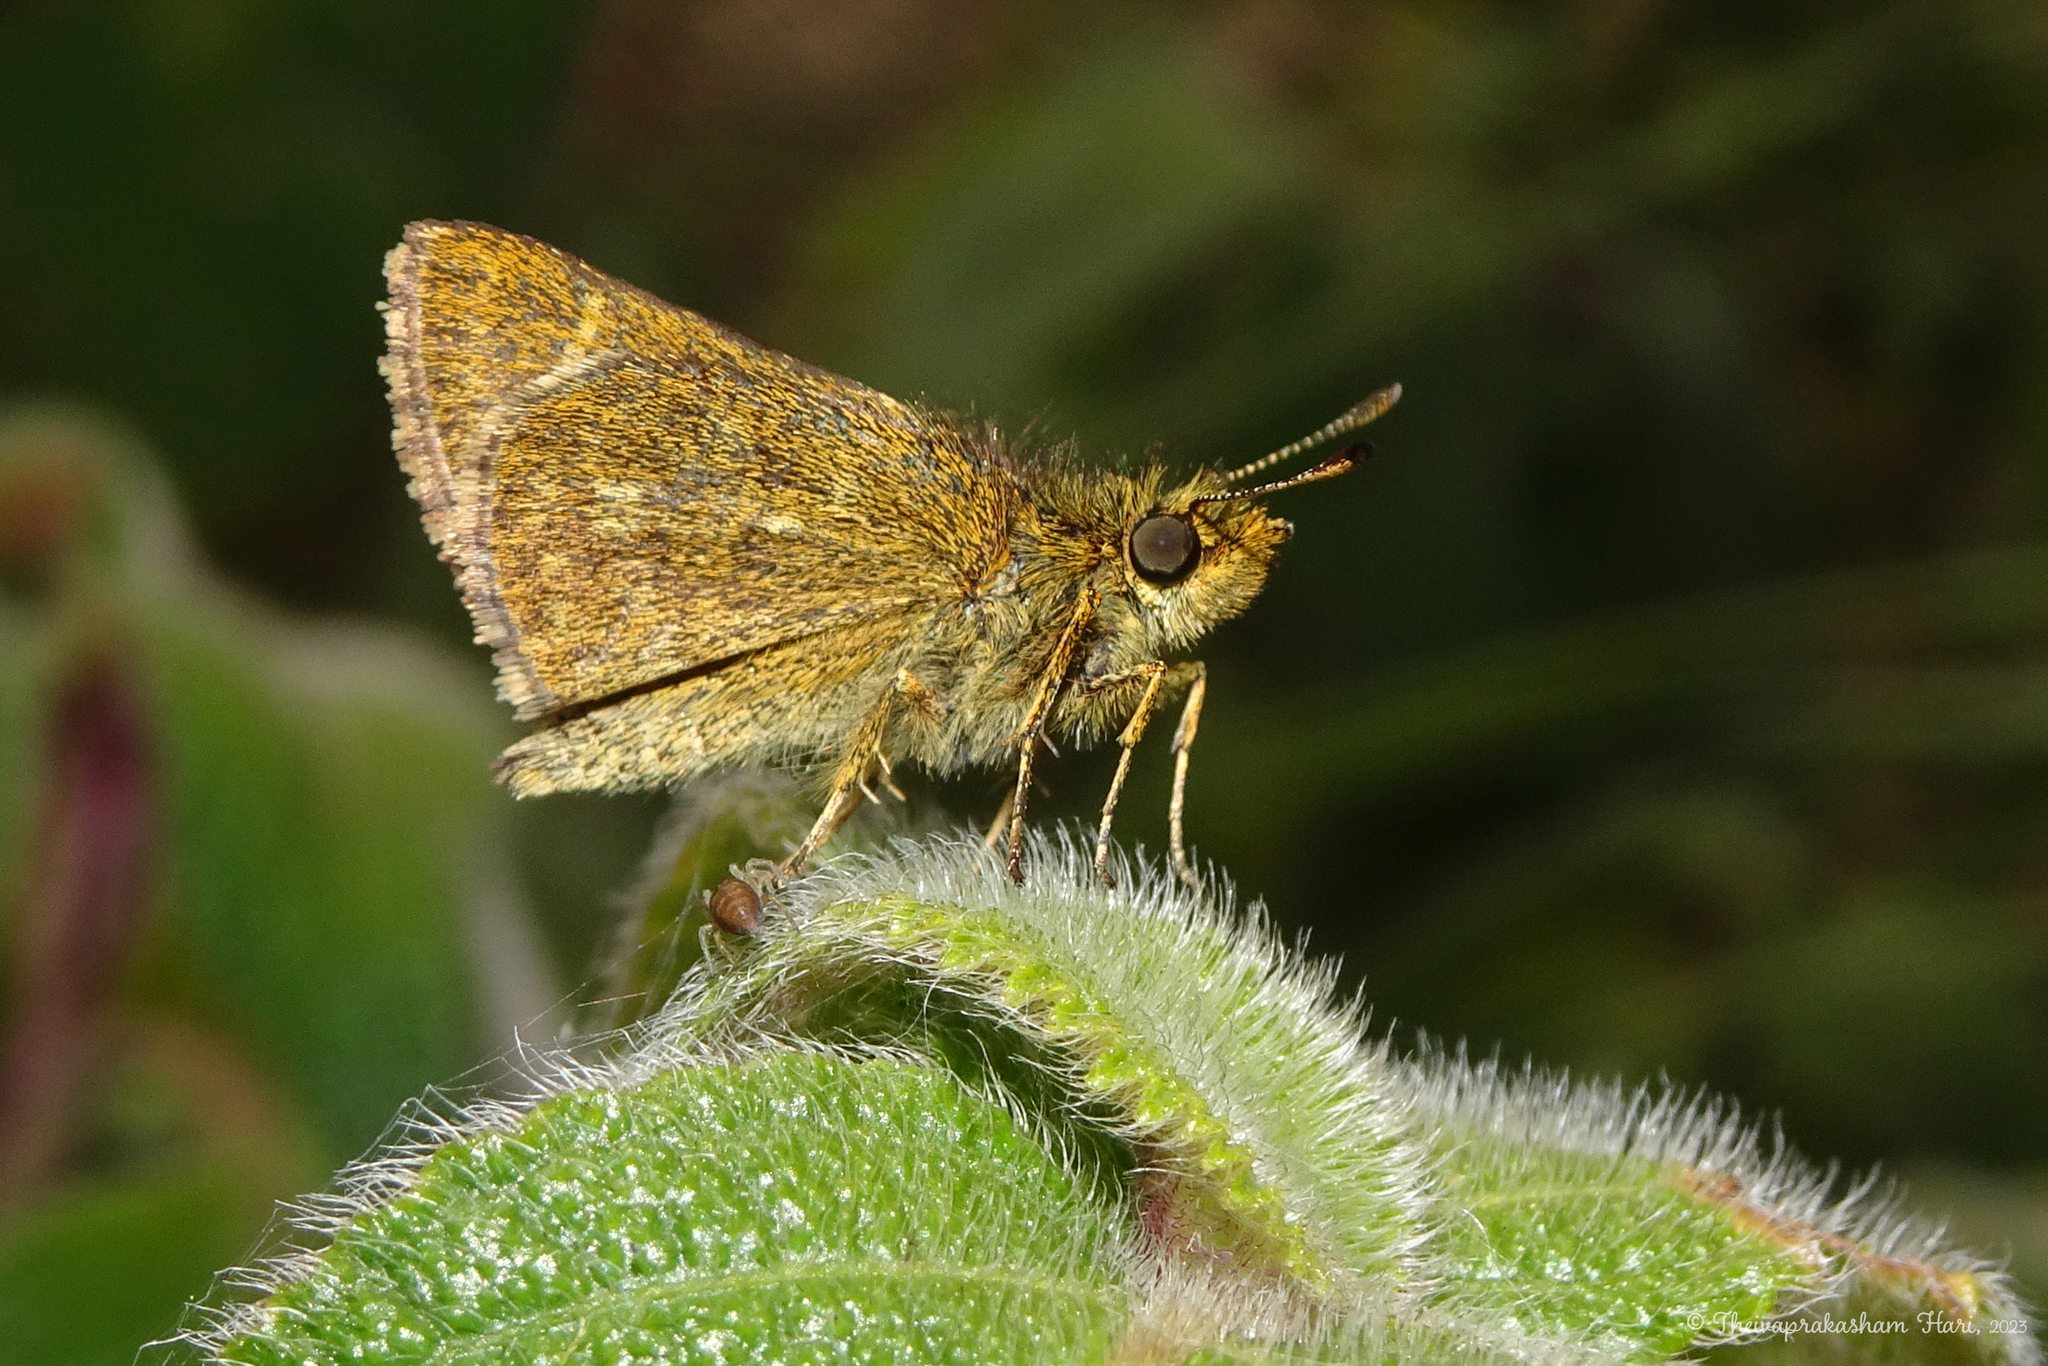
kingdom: Animalia
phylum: Arthropoda
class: Insecta
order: Lepidoptera
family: Hesperiidae
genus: Aeromachus
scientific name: Aeromachus dubius
